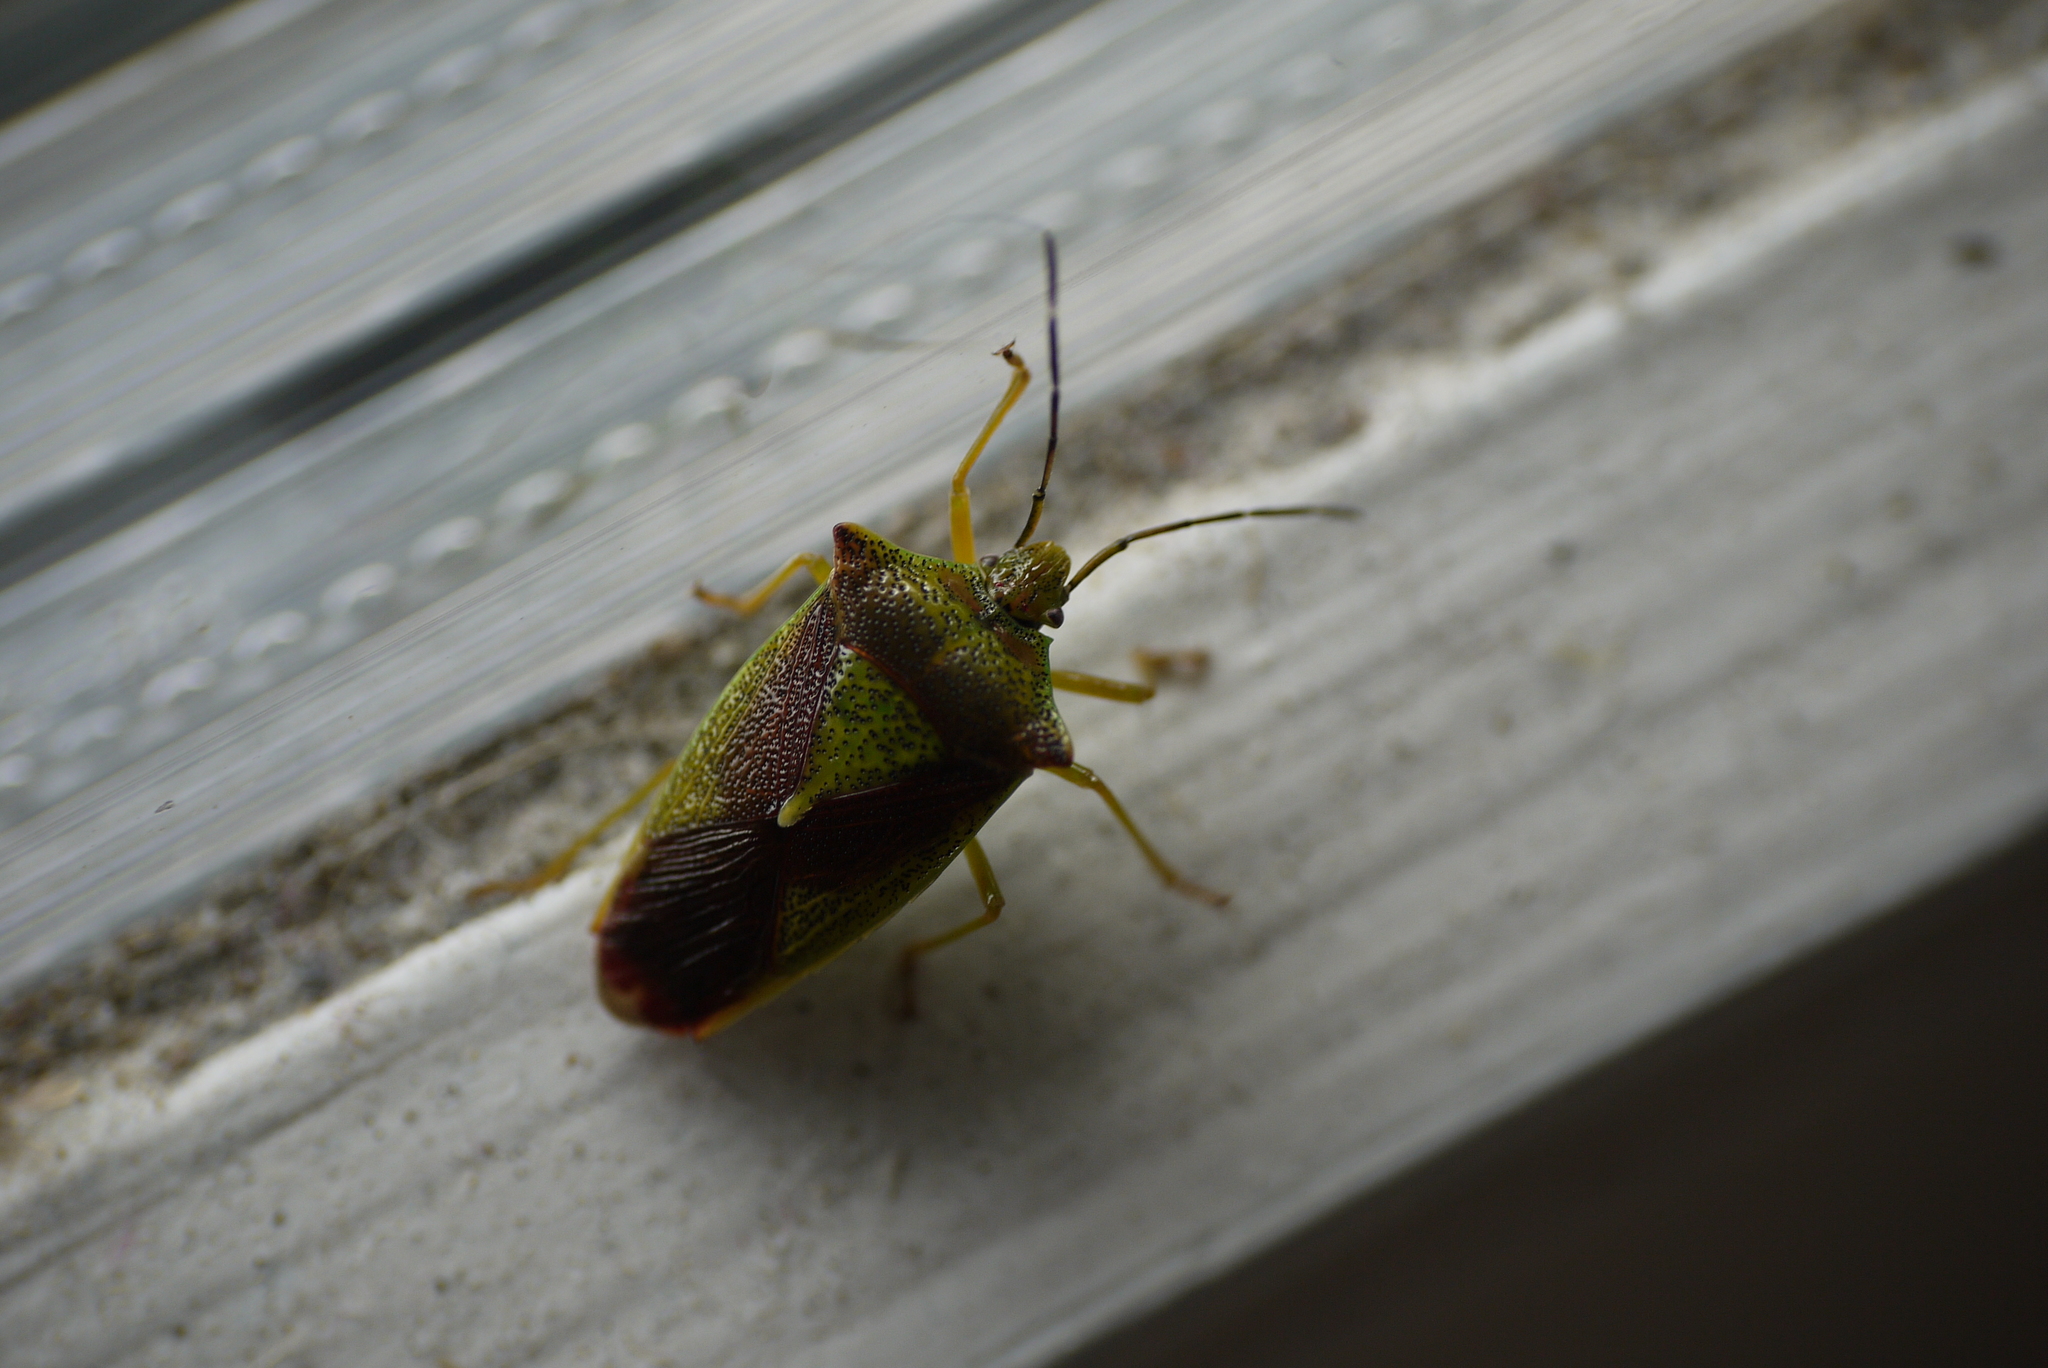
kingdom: Animalia
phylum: Arthropoda
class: Insecta
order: Hemiptera
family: Acanthosomatidae
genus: Acanthosoma
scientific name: Acanthosoma haemorrhoidale
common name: Hawthorn shieldbug
